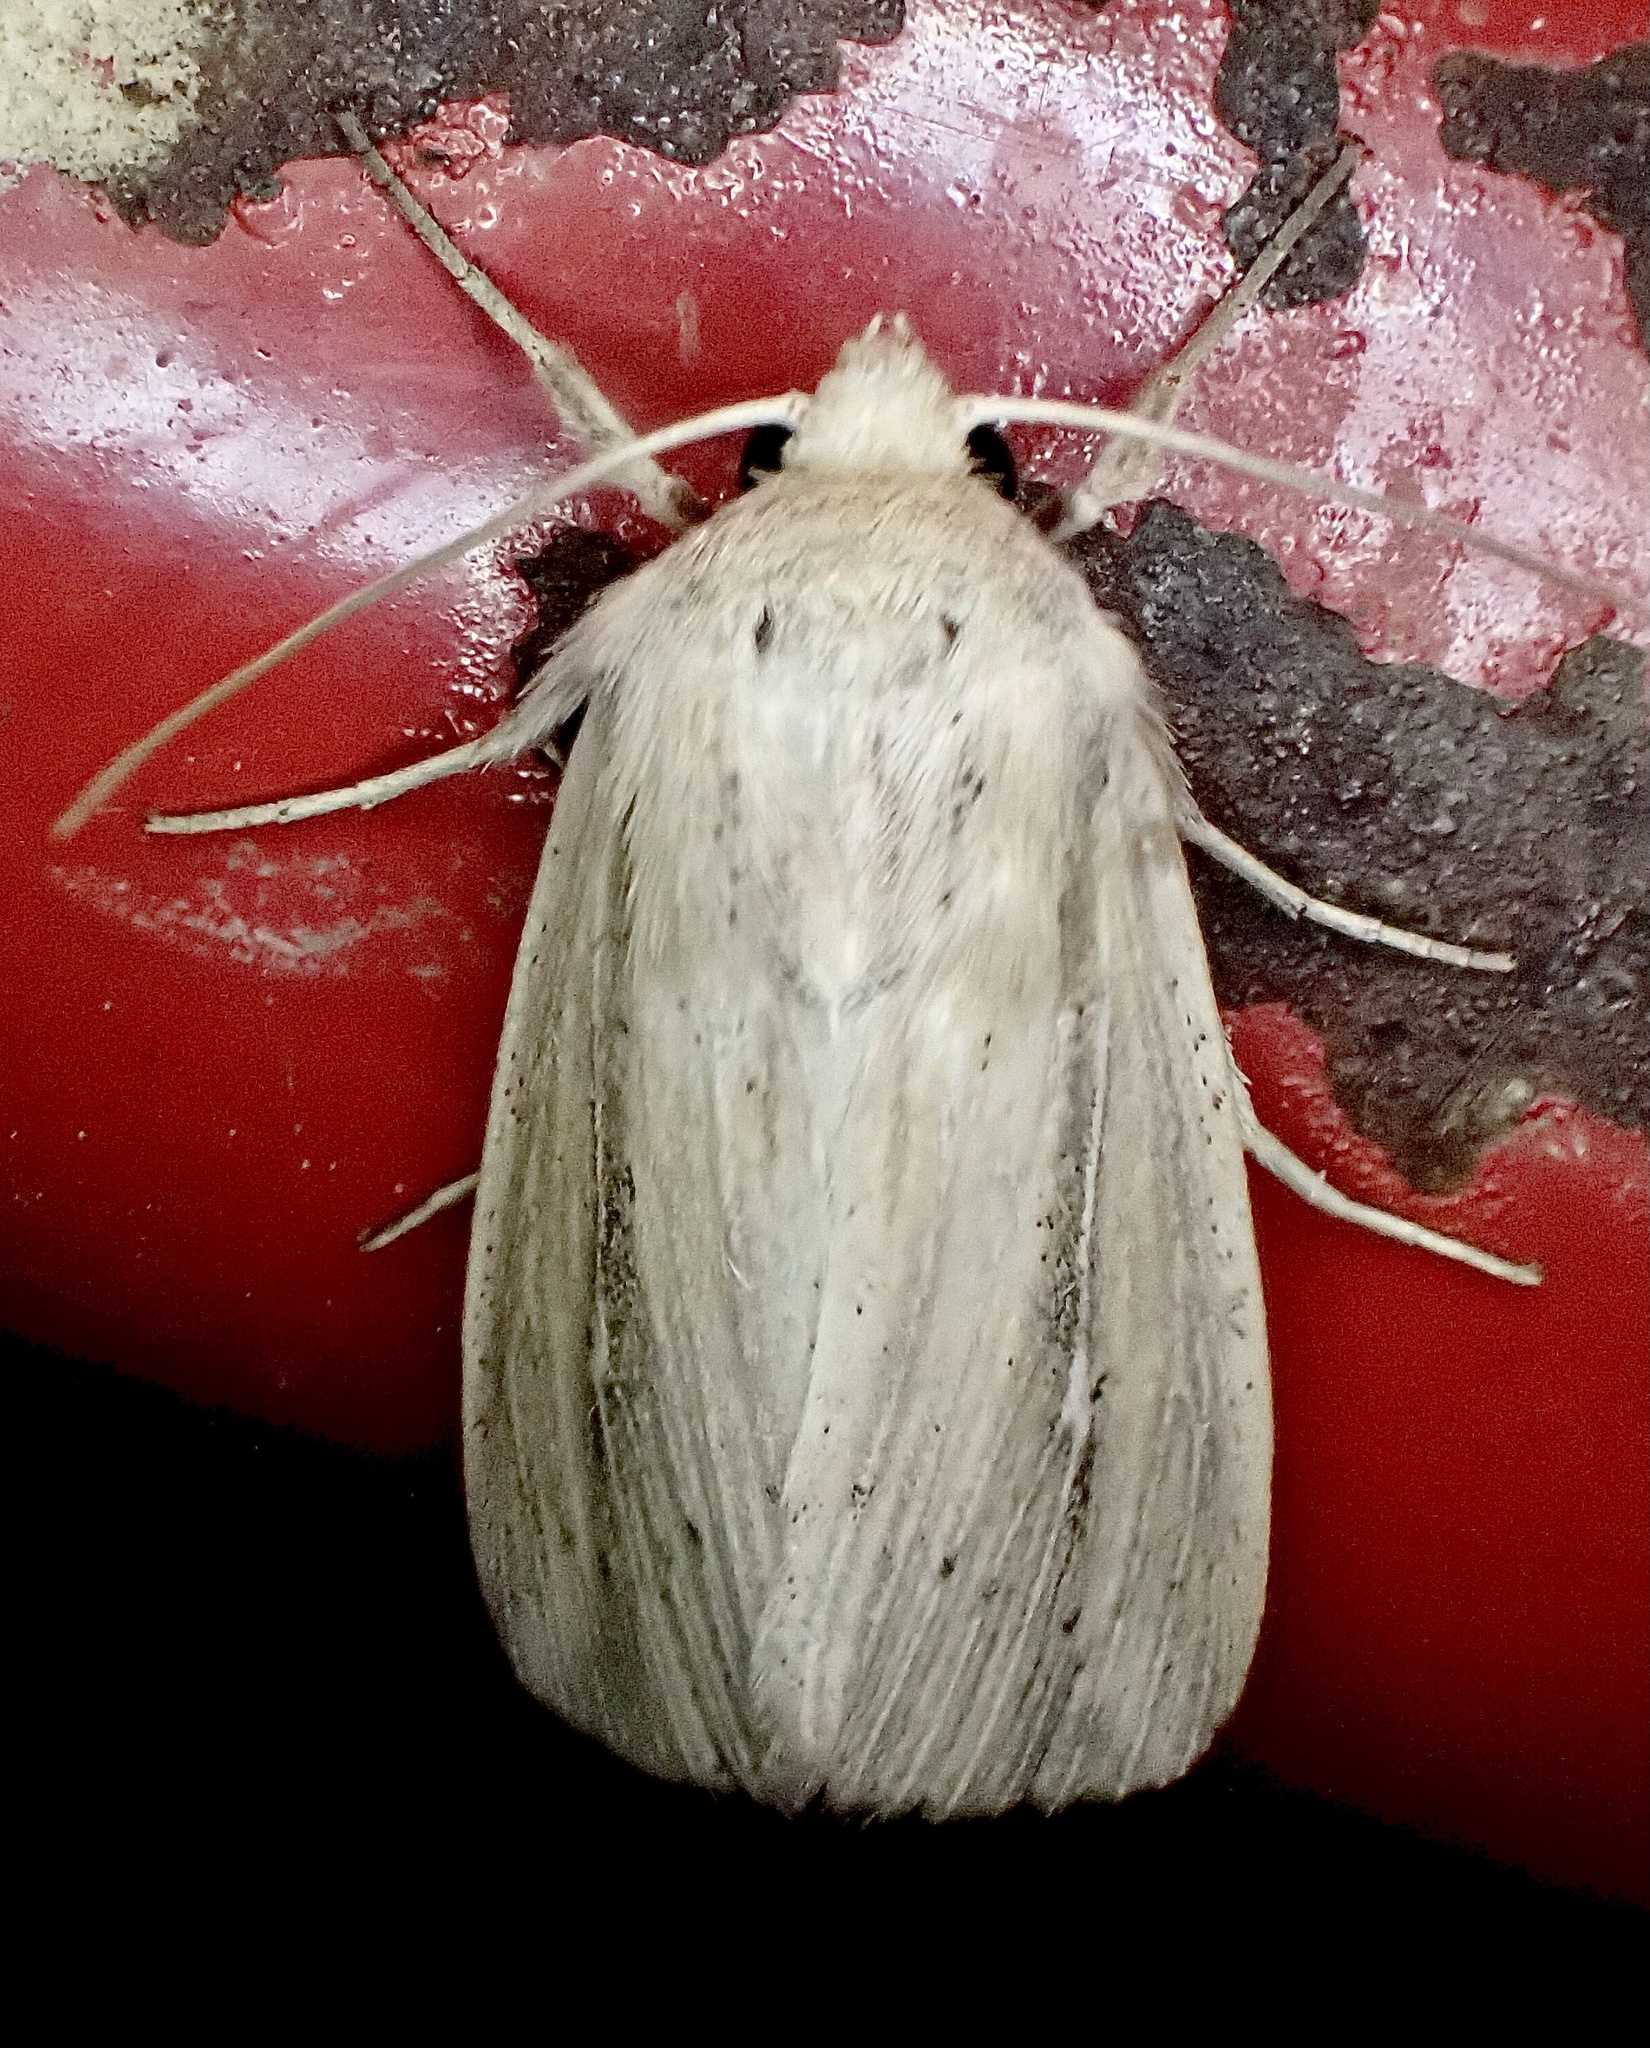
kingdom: Animalia
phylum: Arthropoda
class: Insecta
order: Lepidoptera
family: Noctuidae
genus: Leucania
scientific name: Leucania phragmitidicola
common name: Phragmites wainscot
